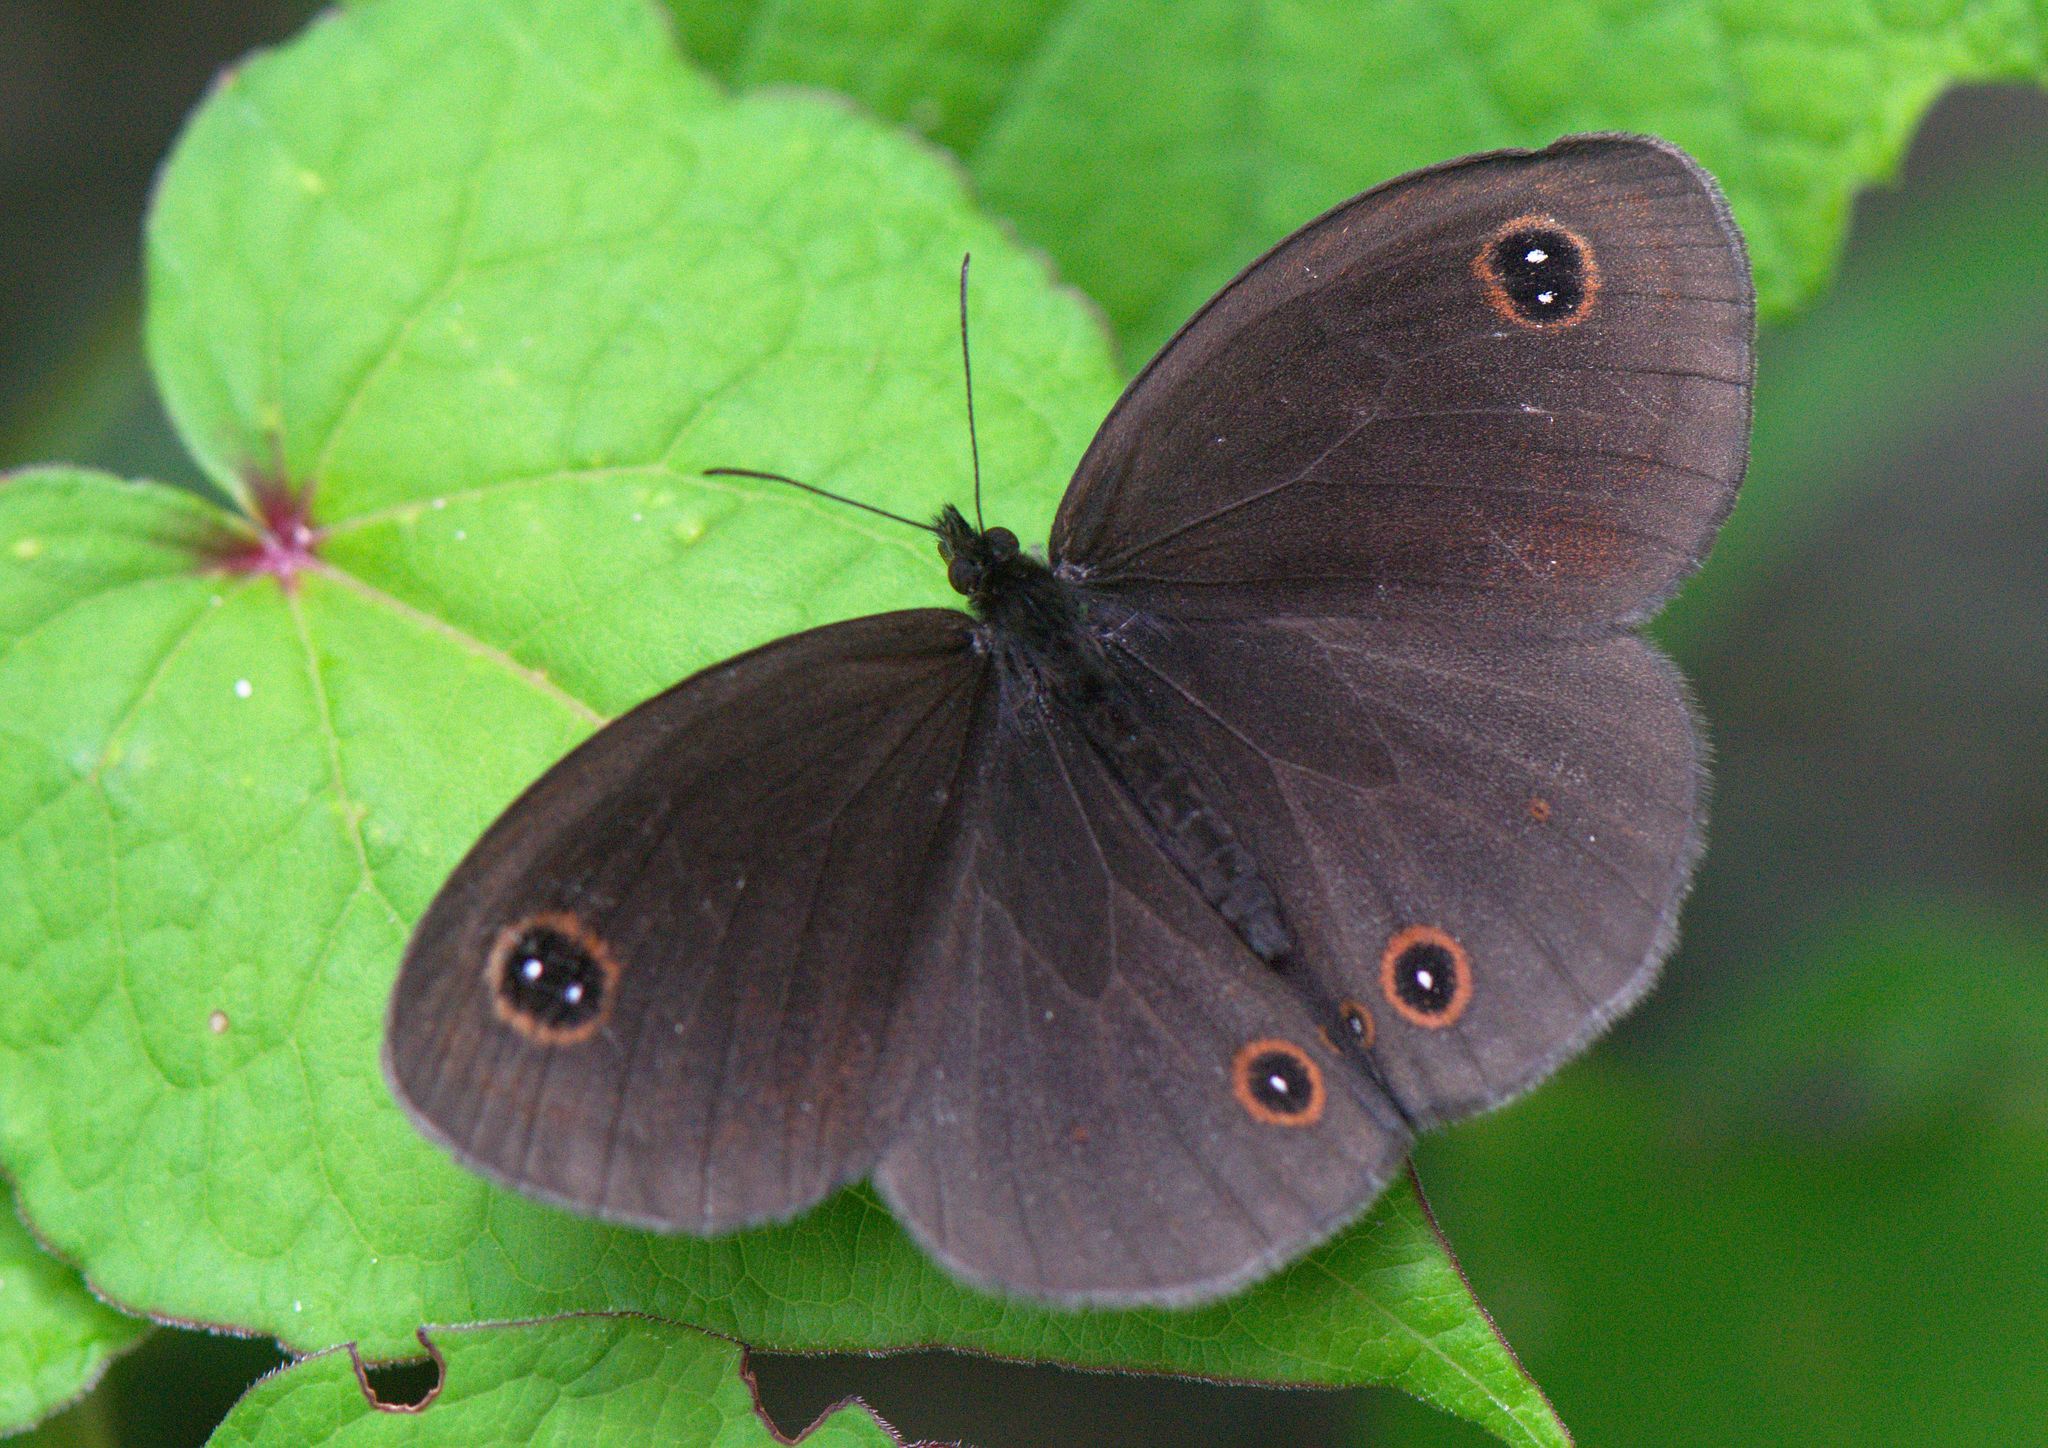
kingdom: Animalia
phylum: Arthropoda
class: Insecta
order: Lepidoptera
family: Nymphalidae
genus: Callerebia
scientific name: Callerebia nirmala
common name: Common argus
